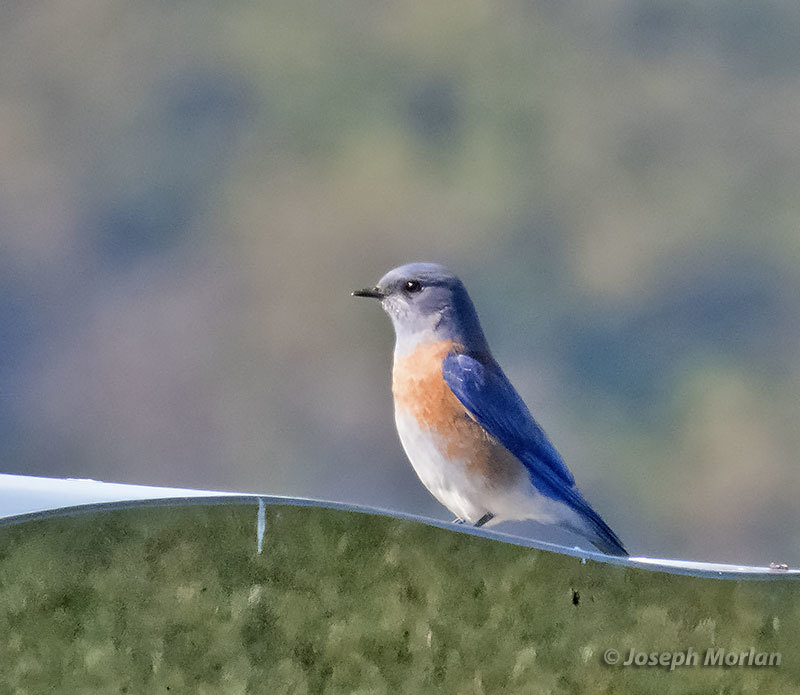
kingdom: Animalia
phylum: Chordata
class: Aves
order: Passeriformes
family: Turdidae
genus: Sialia
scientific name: Sialia mexicana
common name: Western bluebird
